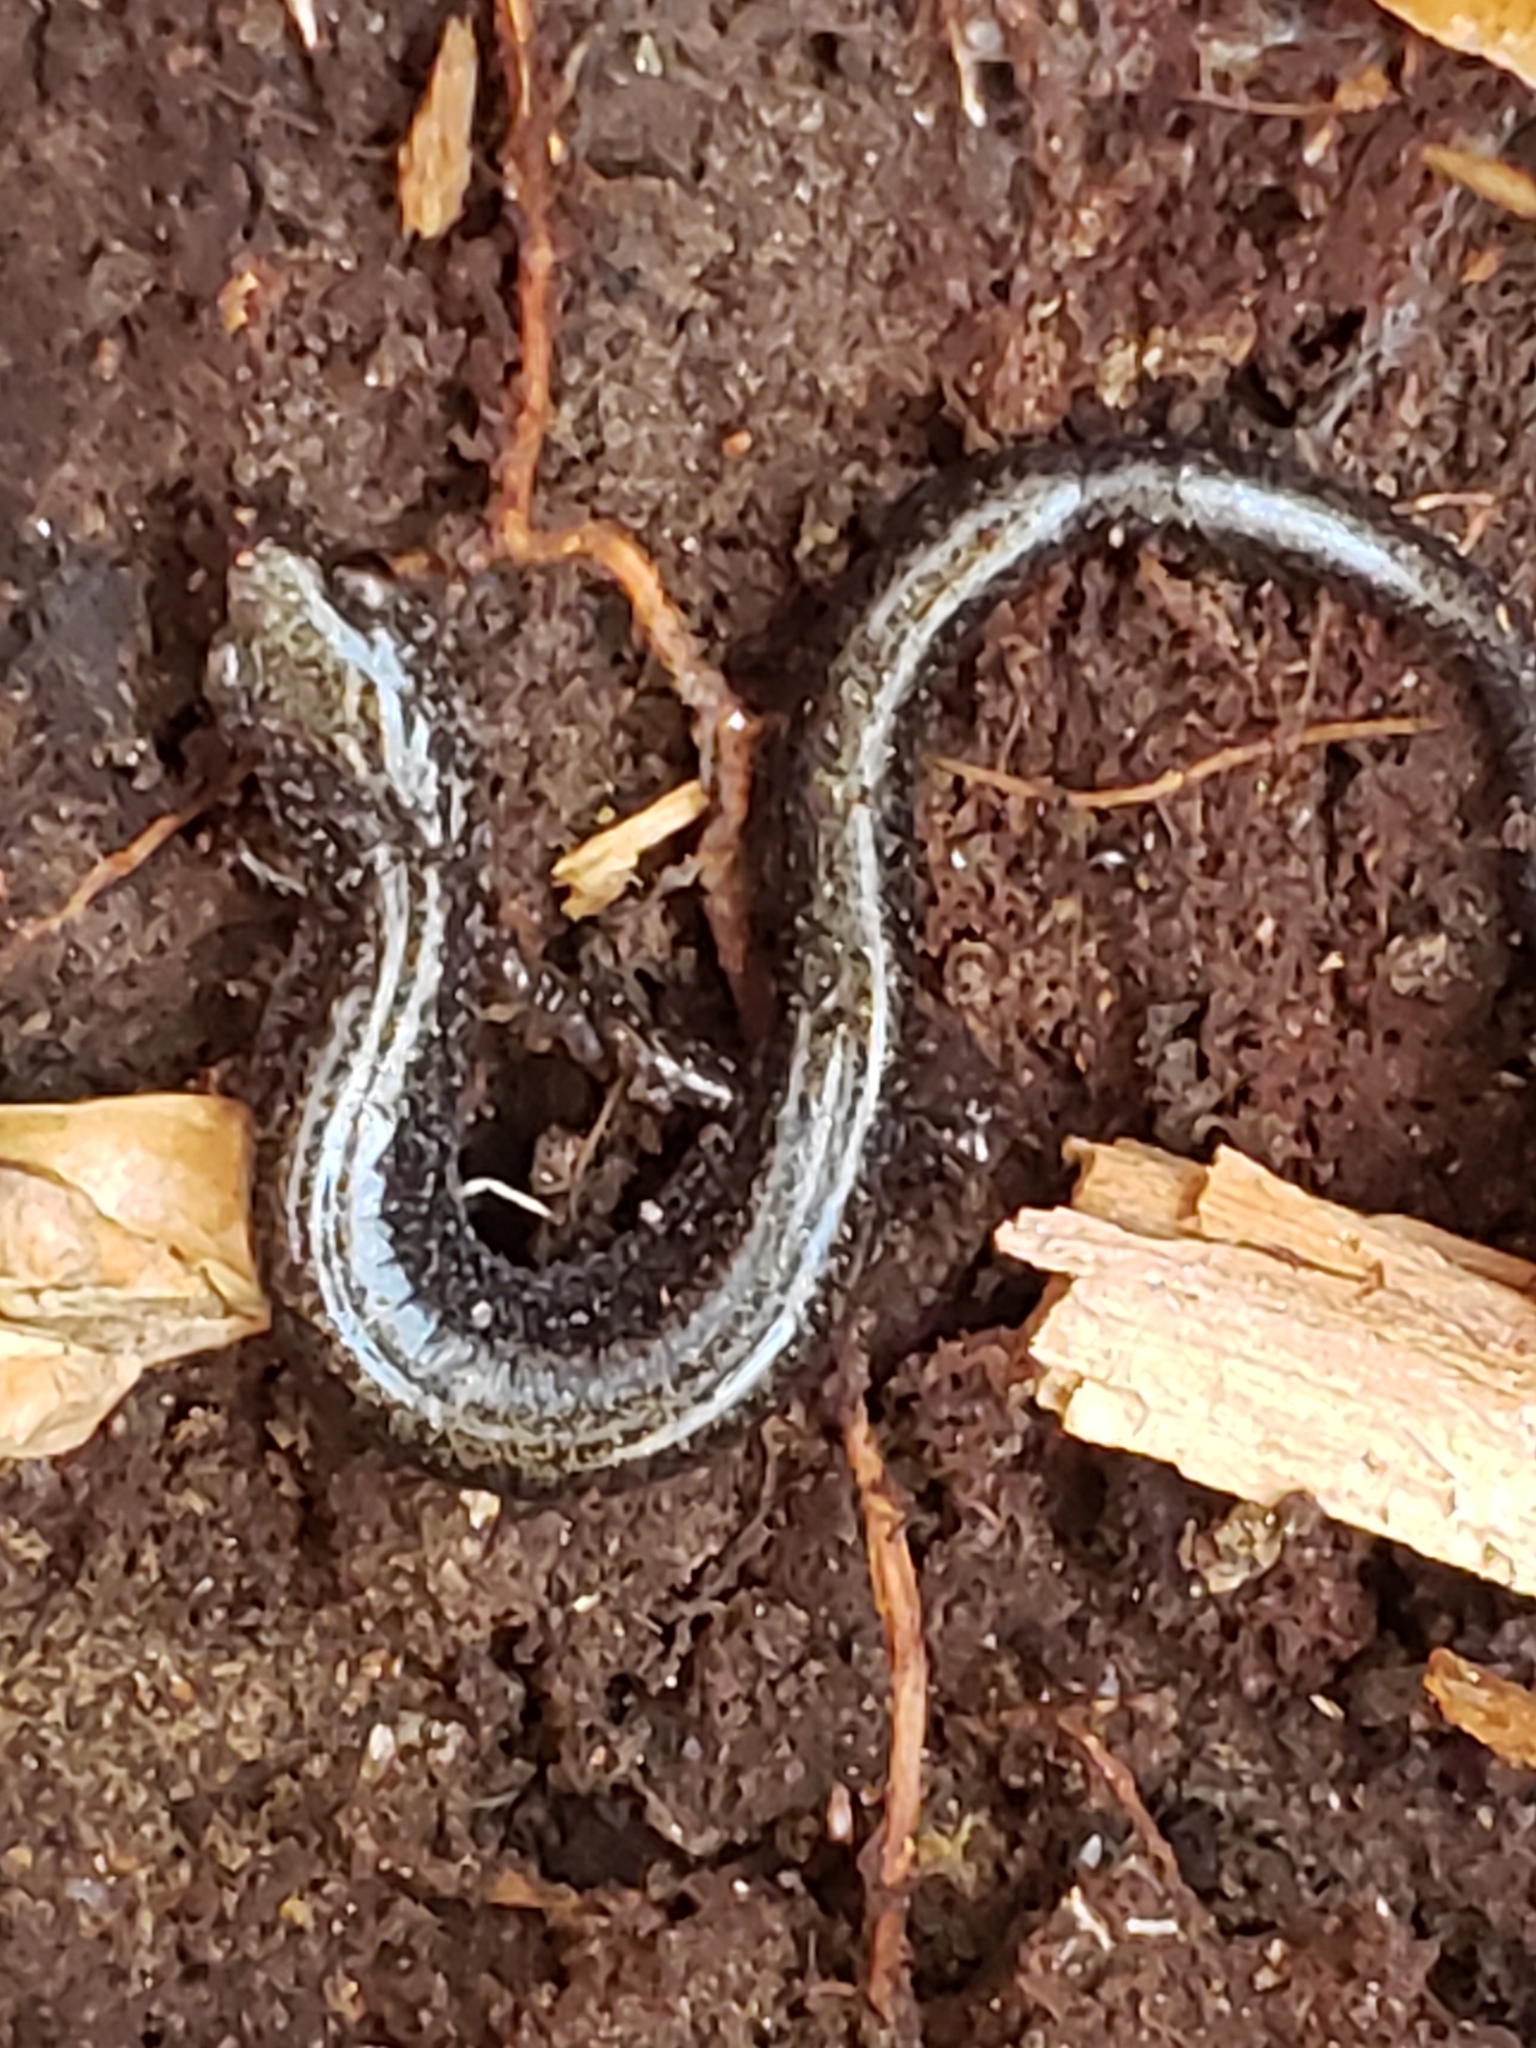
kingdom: Animalia
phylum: Chordata
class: Amphibia
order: Caudata
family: Plethodontidae
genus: Plethodon
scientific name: Plethodon cinereus
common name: Redback salamander
